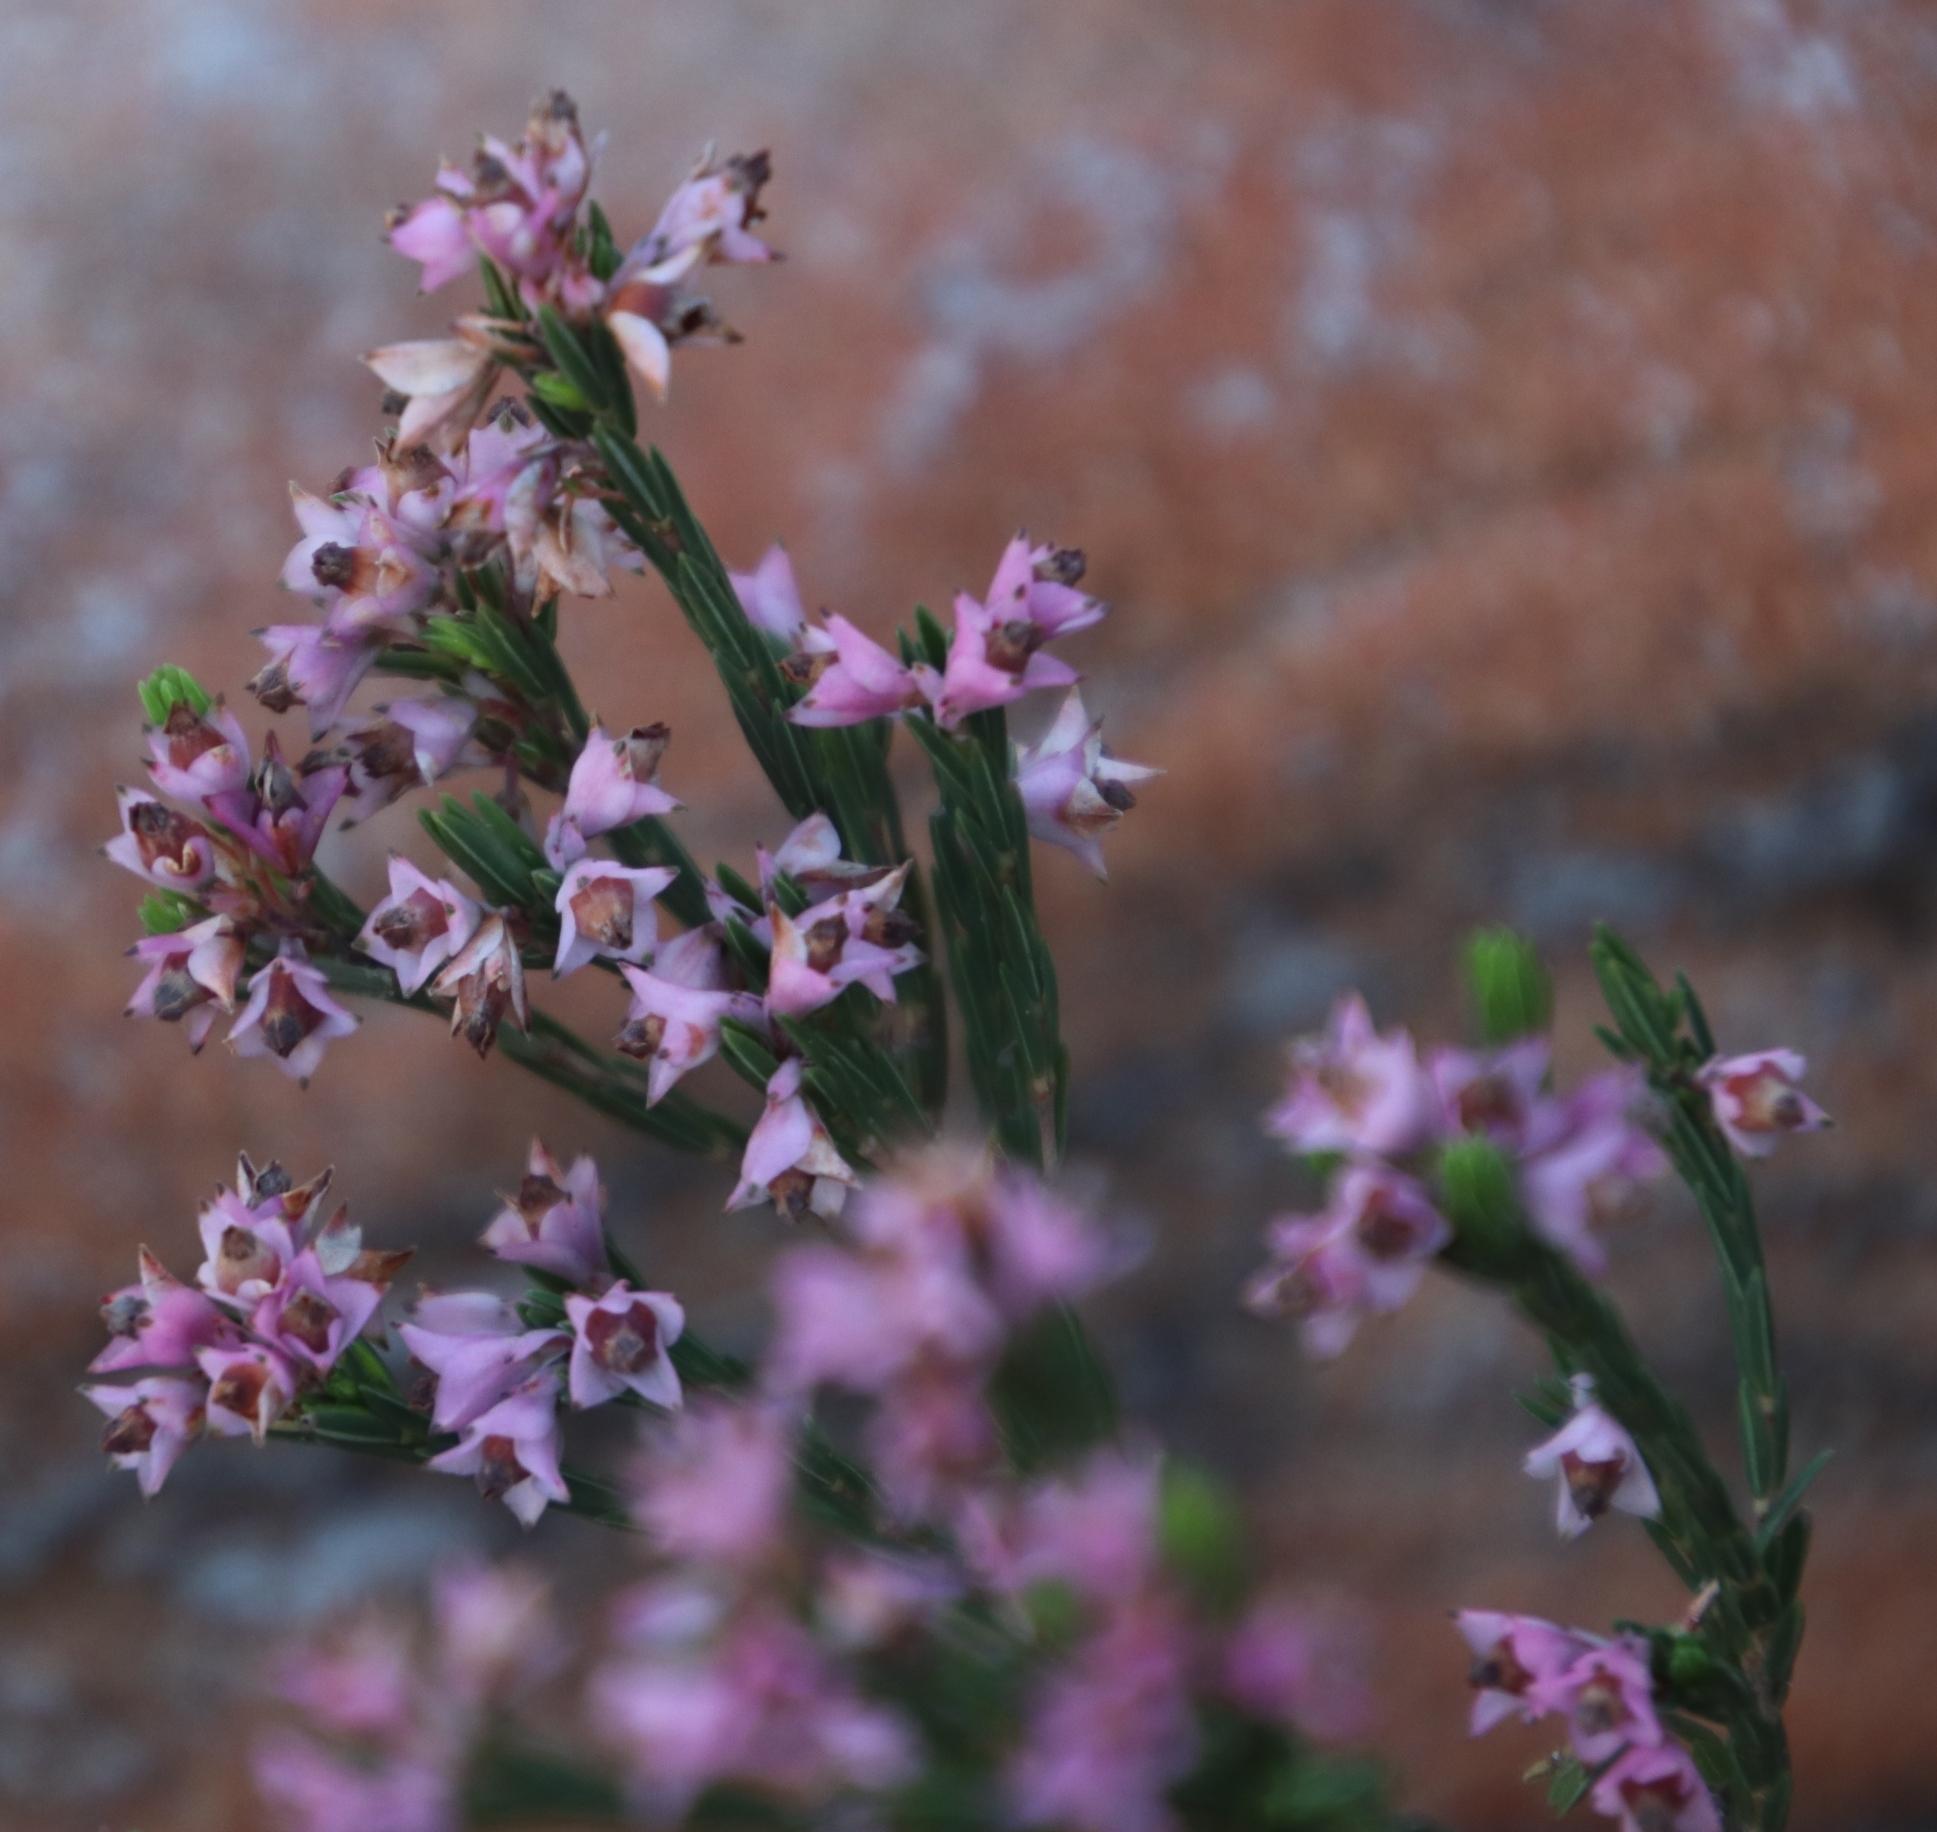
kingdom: Plantae
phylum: Tracheophyta
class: Magnoliopsida
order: Ericales
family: Ericaceae
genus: Erica
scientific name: Erica corifolia
